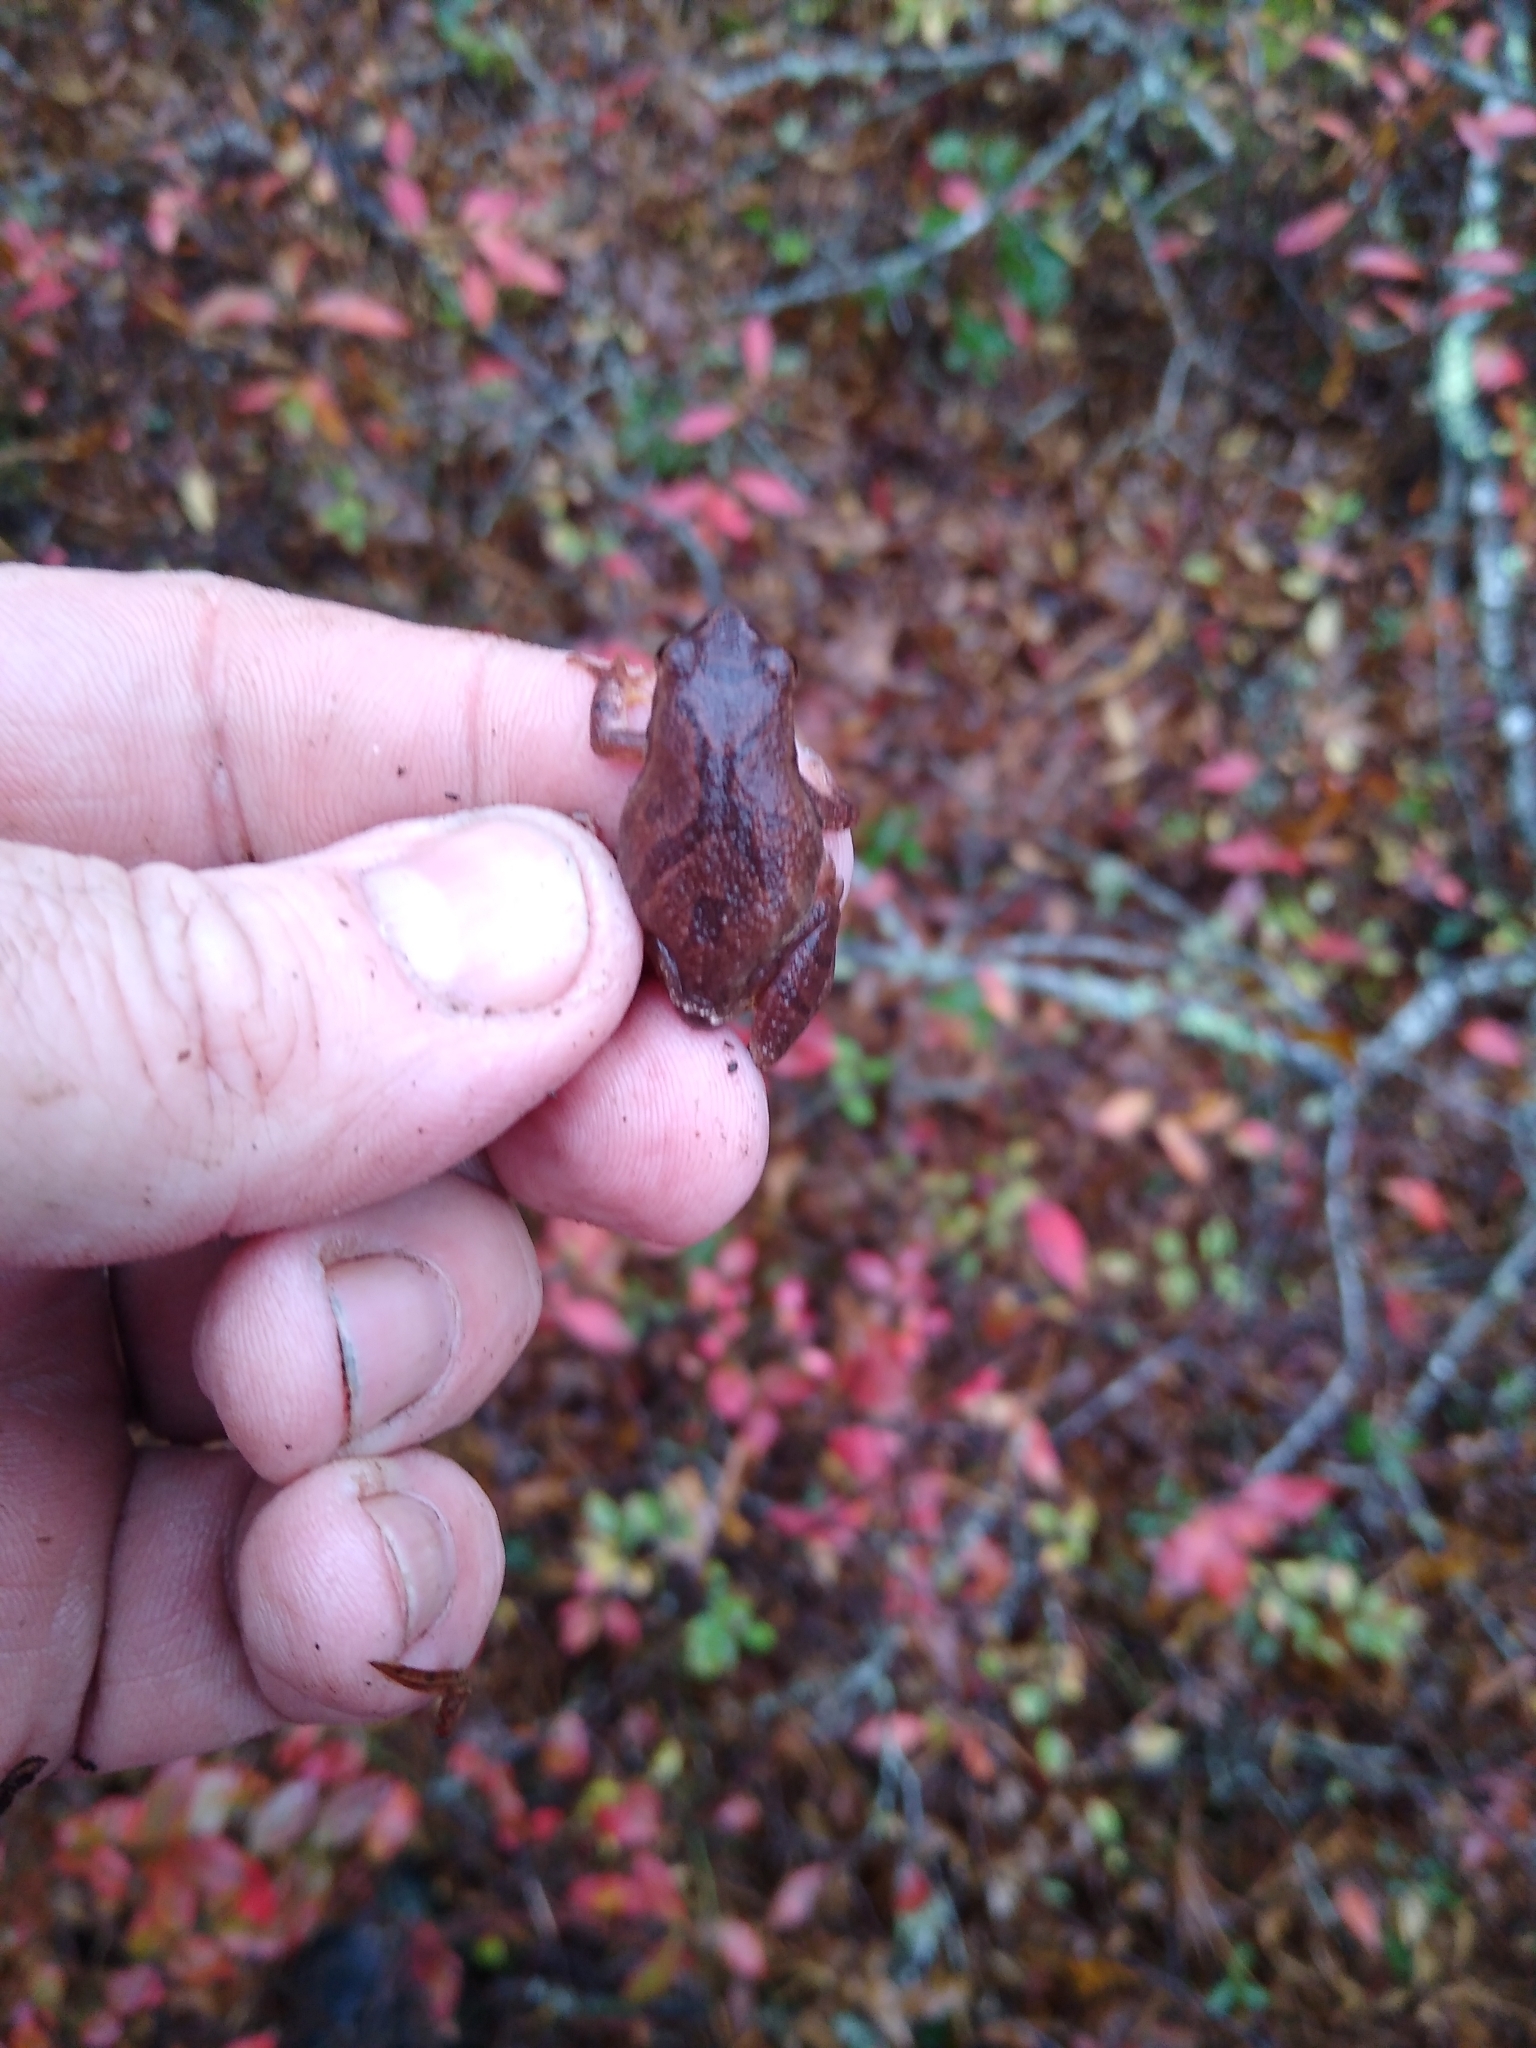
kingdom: Animalia
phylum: Chordata
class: Amphibia
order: Anura
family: Hylidae
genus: Pseudacris
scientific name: Pseudacris crucifer
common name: Spring peeper
